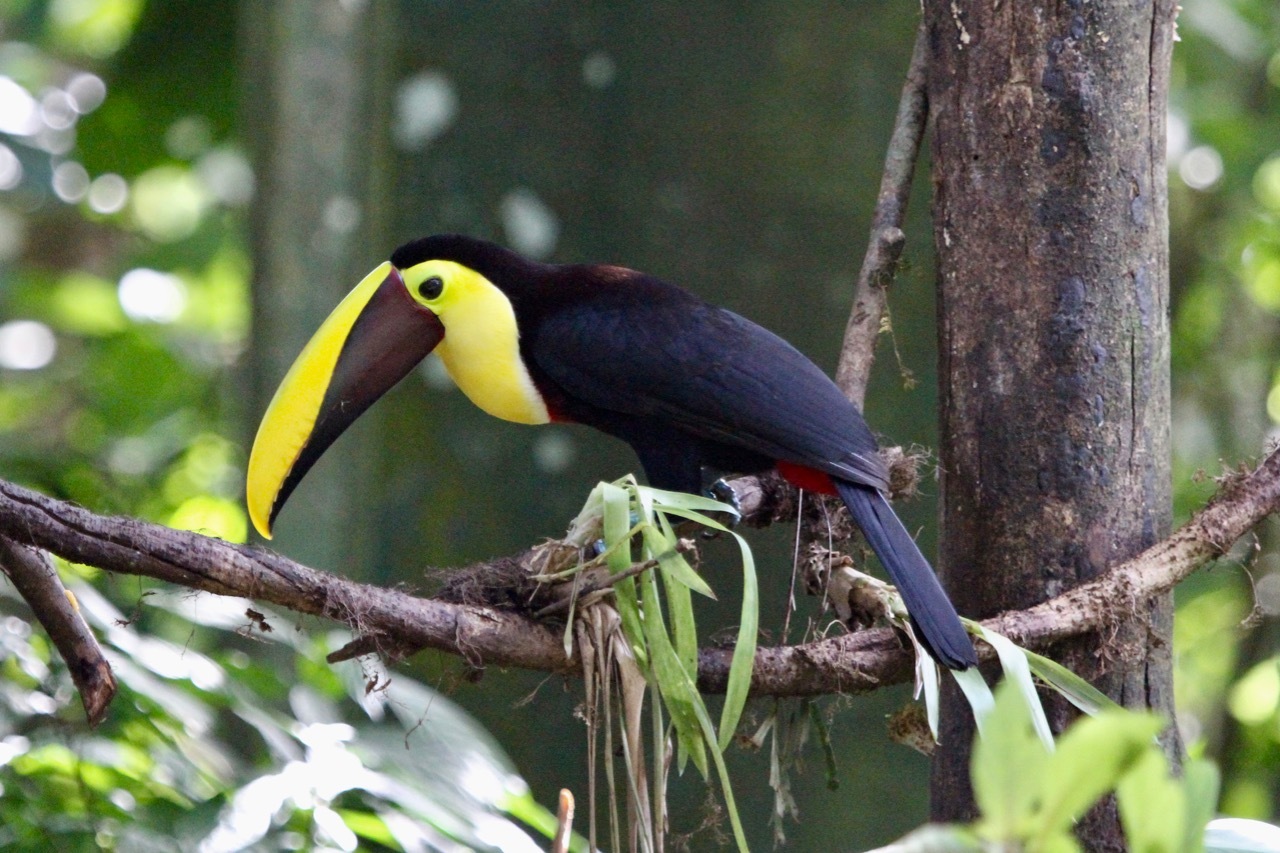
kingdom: Animalia
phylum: Chordata
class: Aves
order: Piciformes
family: Ramphastidae
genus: Ramphastos
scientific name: Ramphastos ambiguus
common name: Yellow-throated toucan
